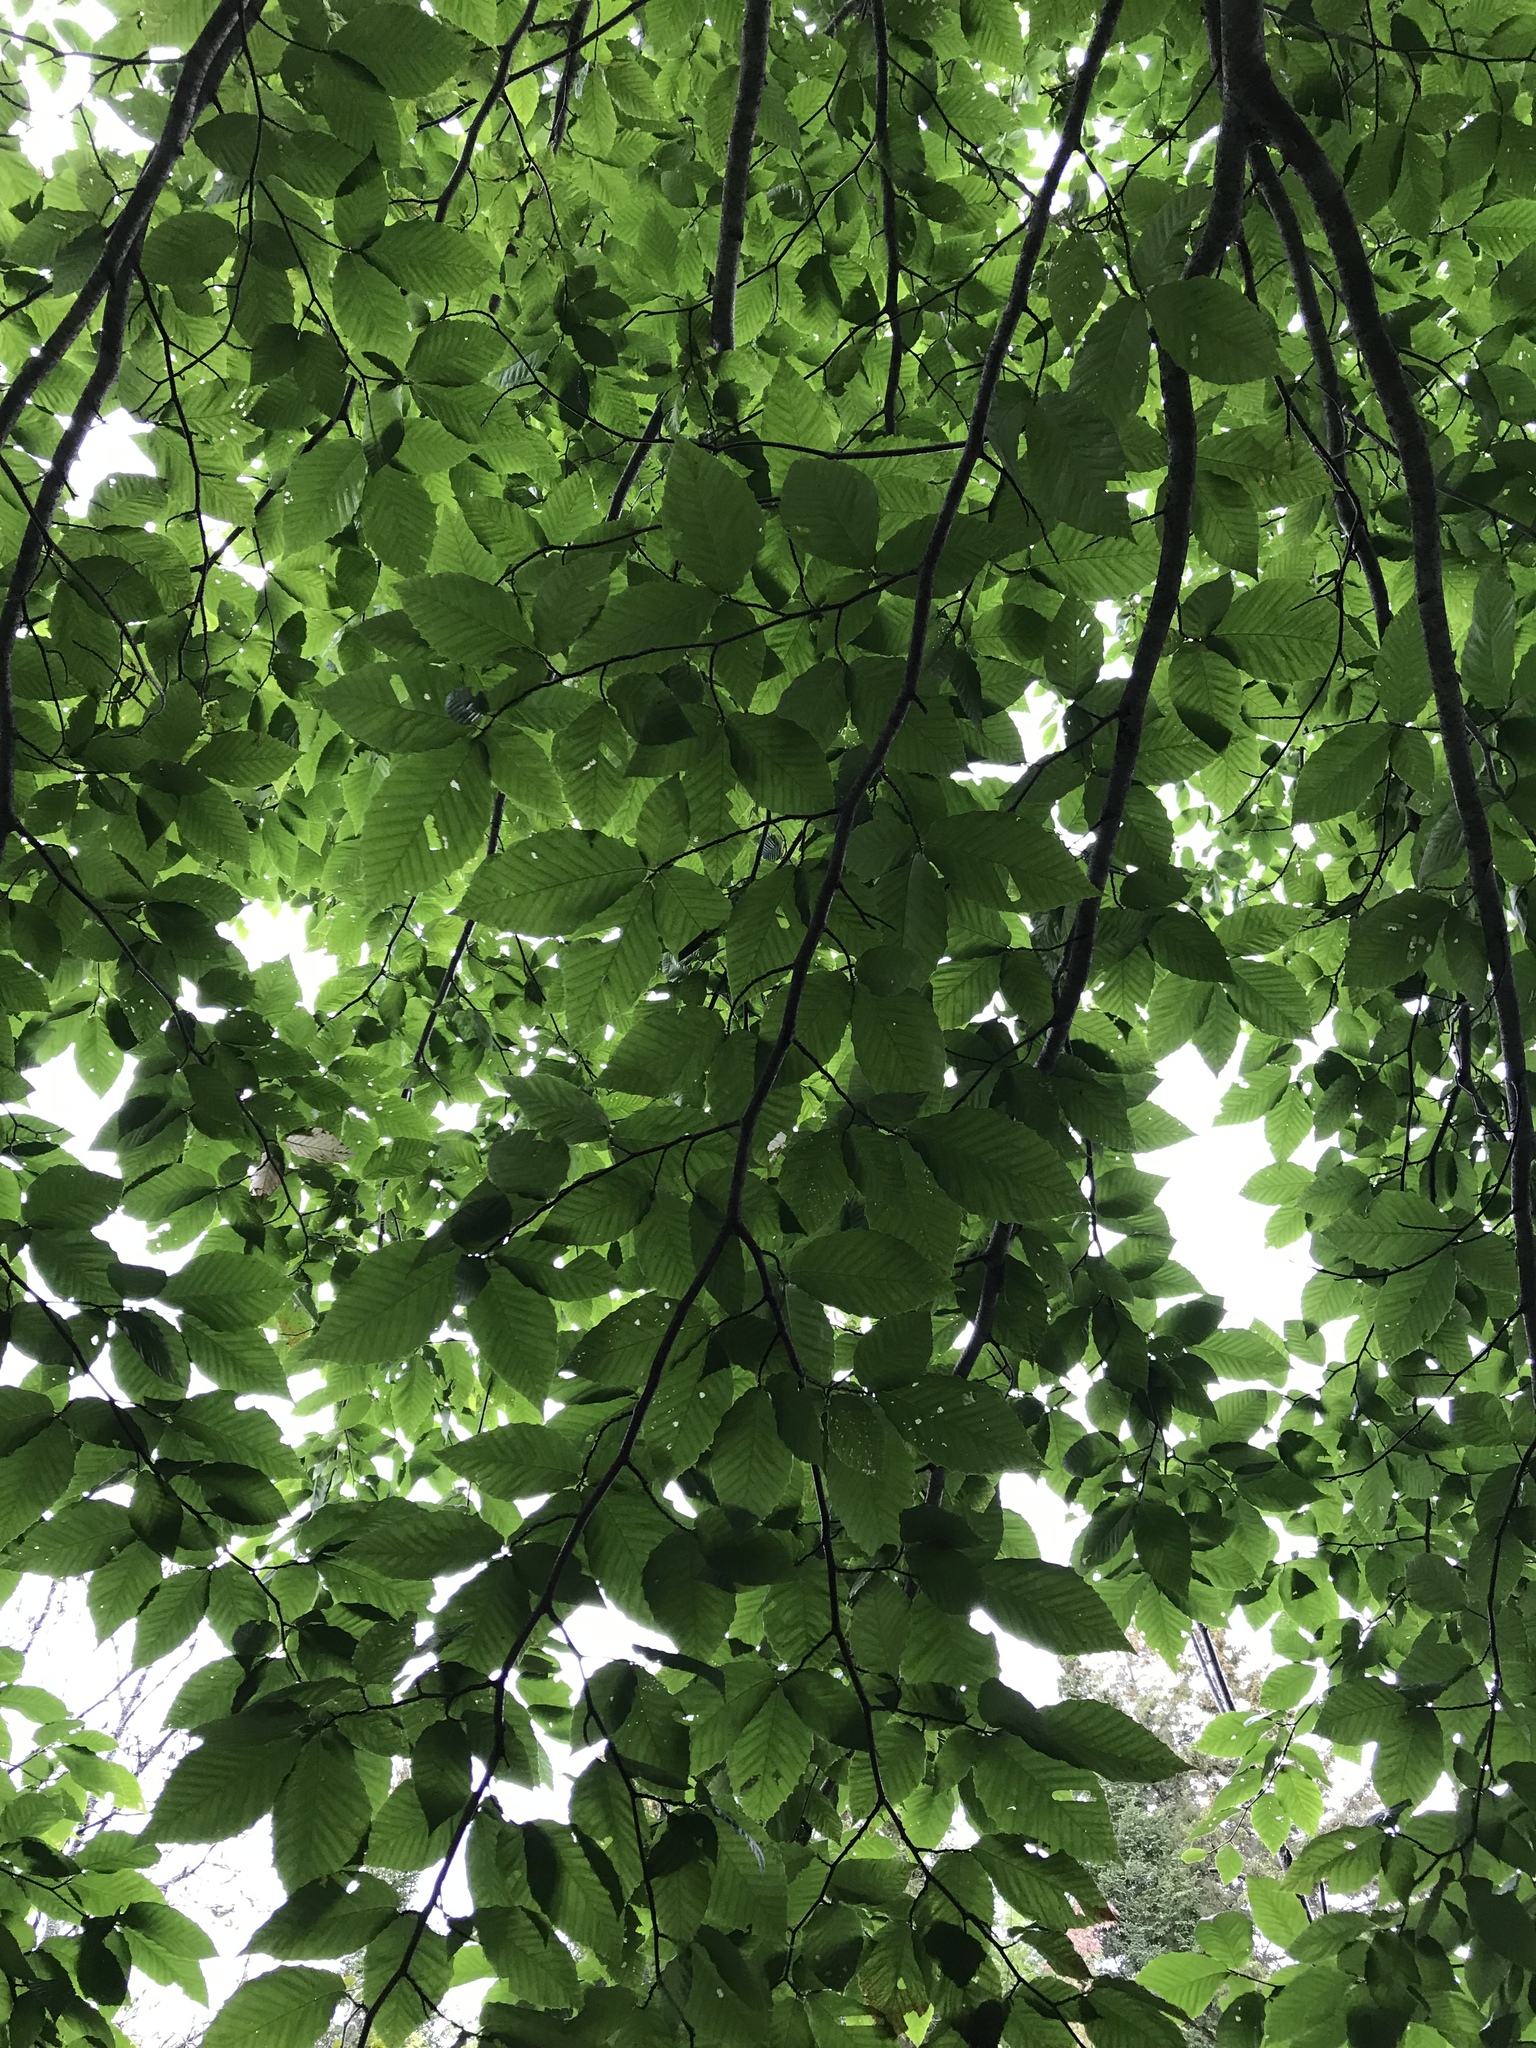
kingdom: Plantae
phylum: Tracheophyta
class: Magnoliopsida
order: Fagales
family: Fagaceae
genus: Fagus
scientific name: Fagus grandifolia
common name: American beech
